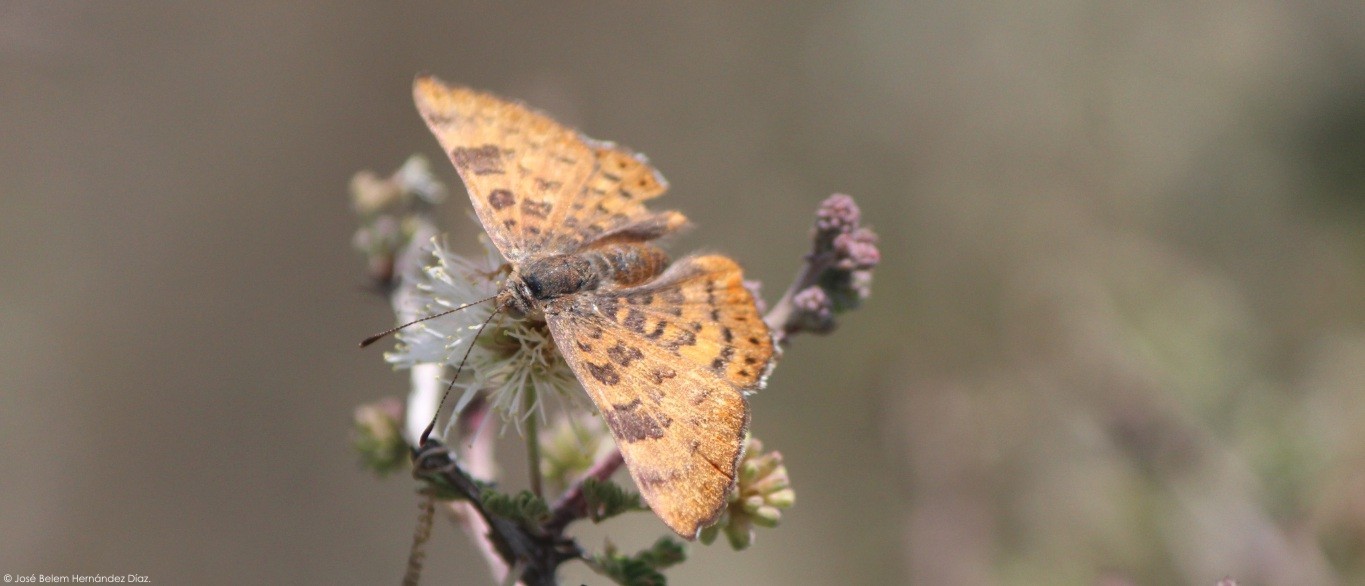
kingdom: Animalia
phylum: Arthropoda
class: Insecta
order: Lepidoptera
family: Riodinidae
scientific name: Riodinidae
